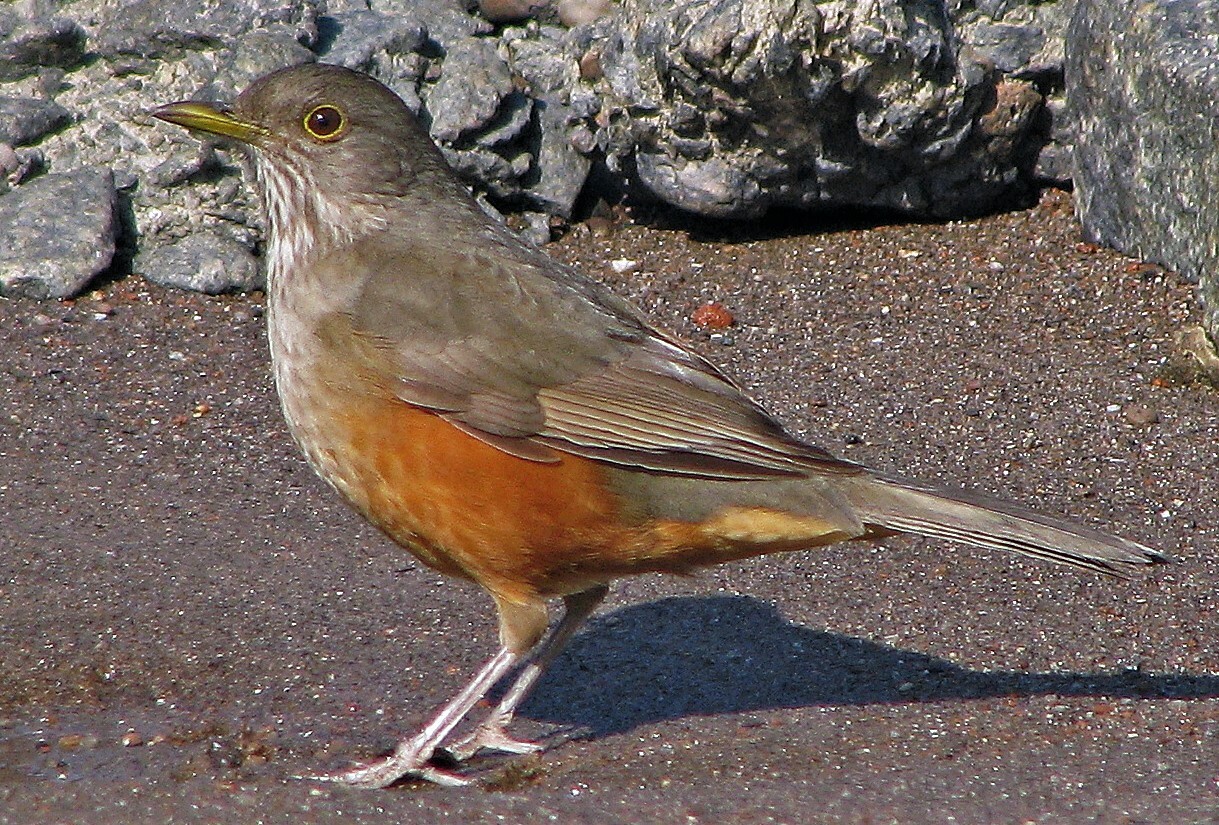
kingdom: Animalia
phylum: Chordata
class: Aves
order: Passeriformes
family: Turdidae
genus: Turdus
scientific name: Turdus rufiventris
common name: Rufous-bellied thrush
